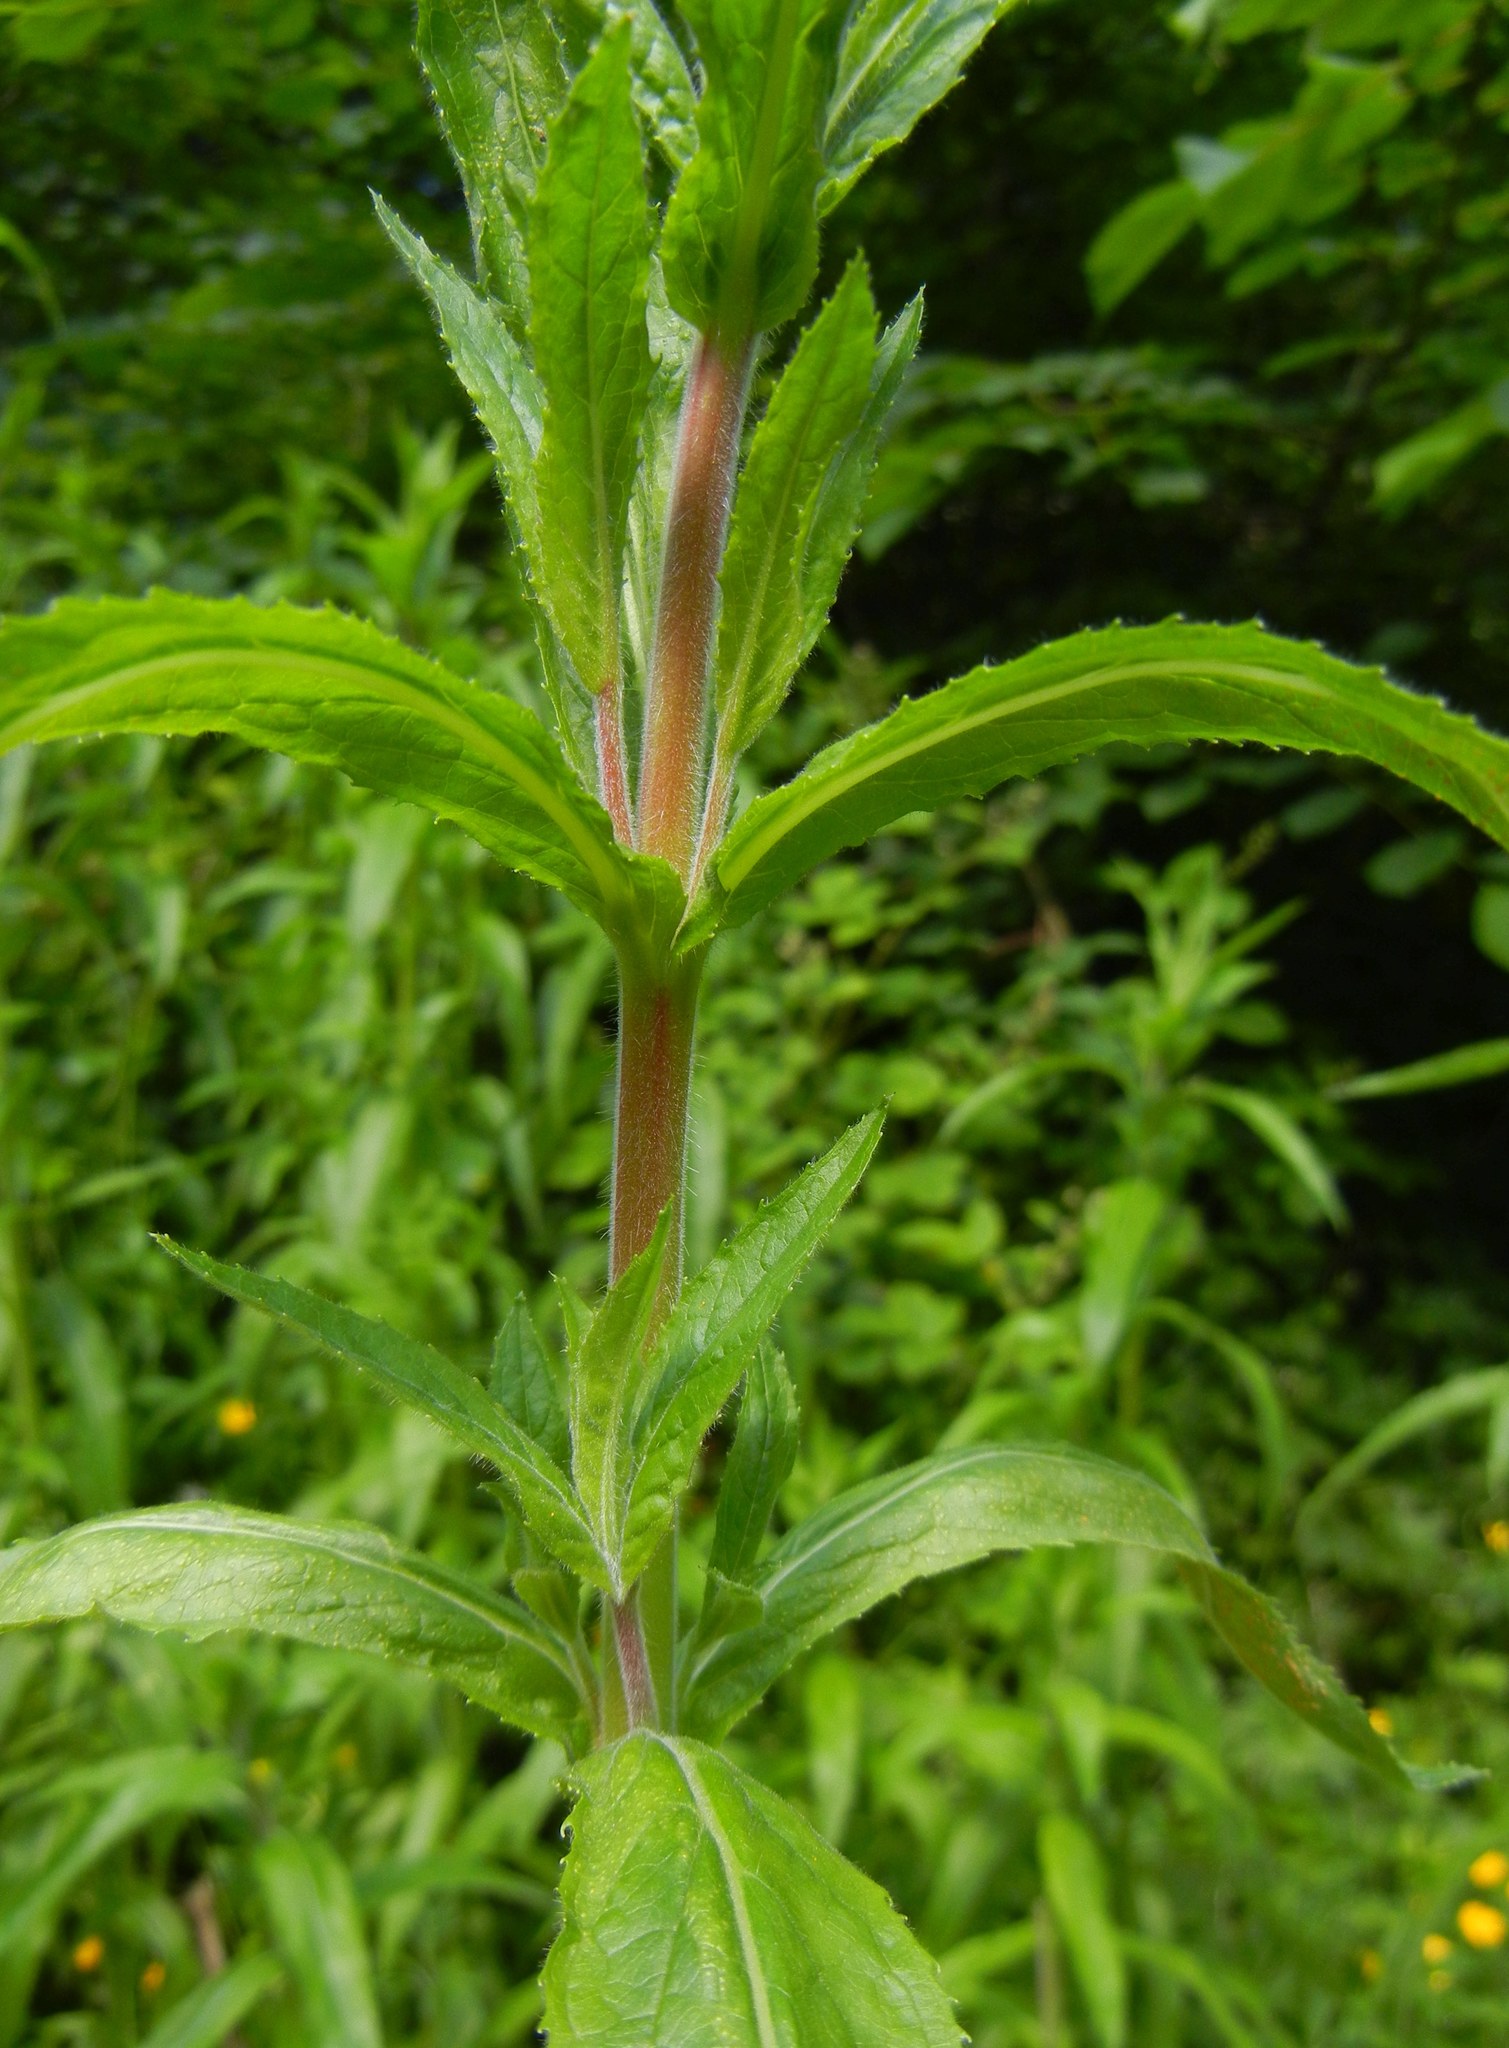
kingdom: Plantae
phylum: Tracheophyta
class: Magnoliopsida
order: Myrtales
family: Onagraceae
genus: Epilobium
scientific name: Epilobium hirsutum
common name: Great willowherb
